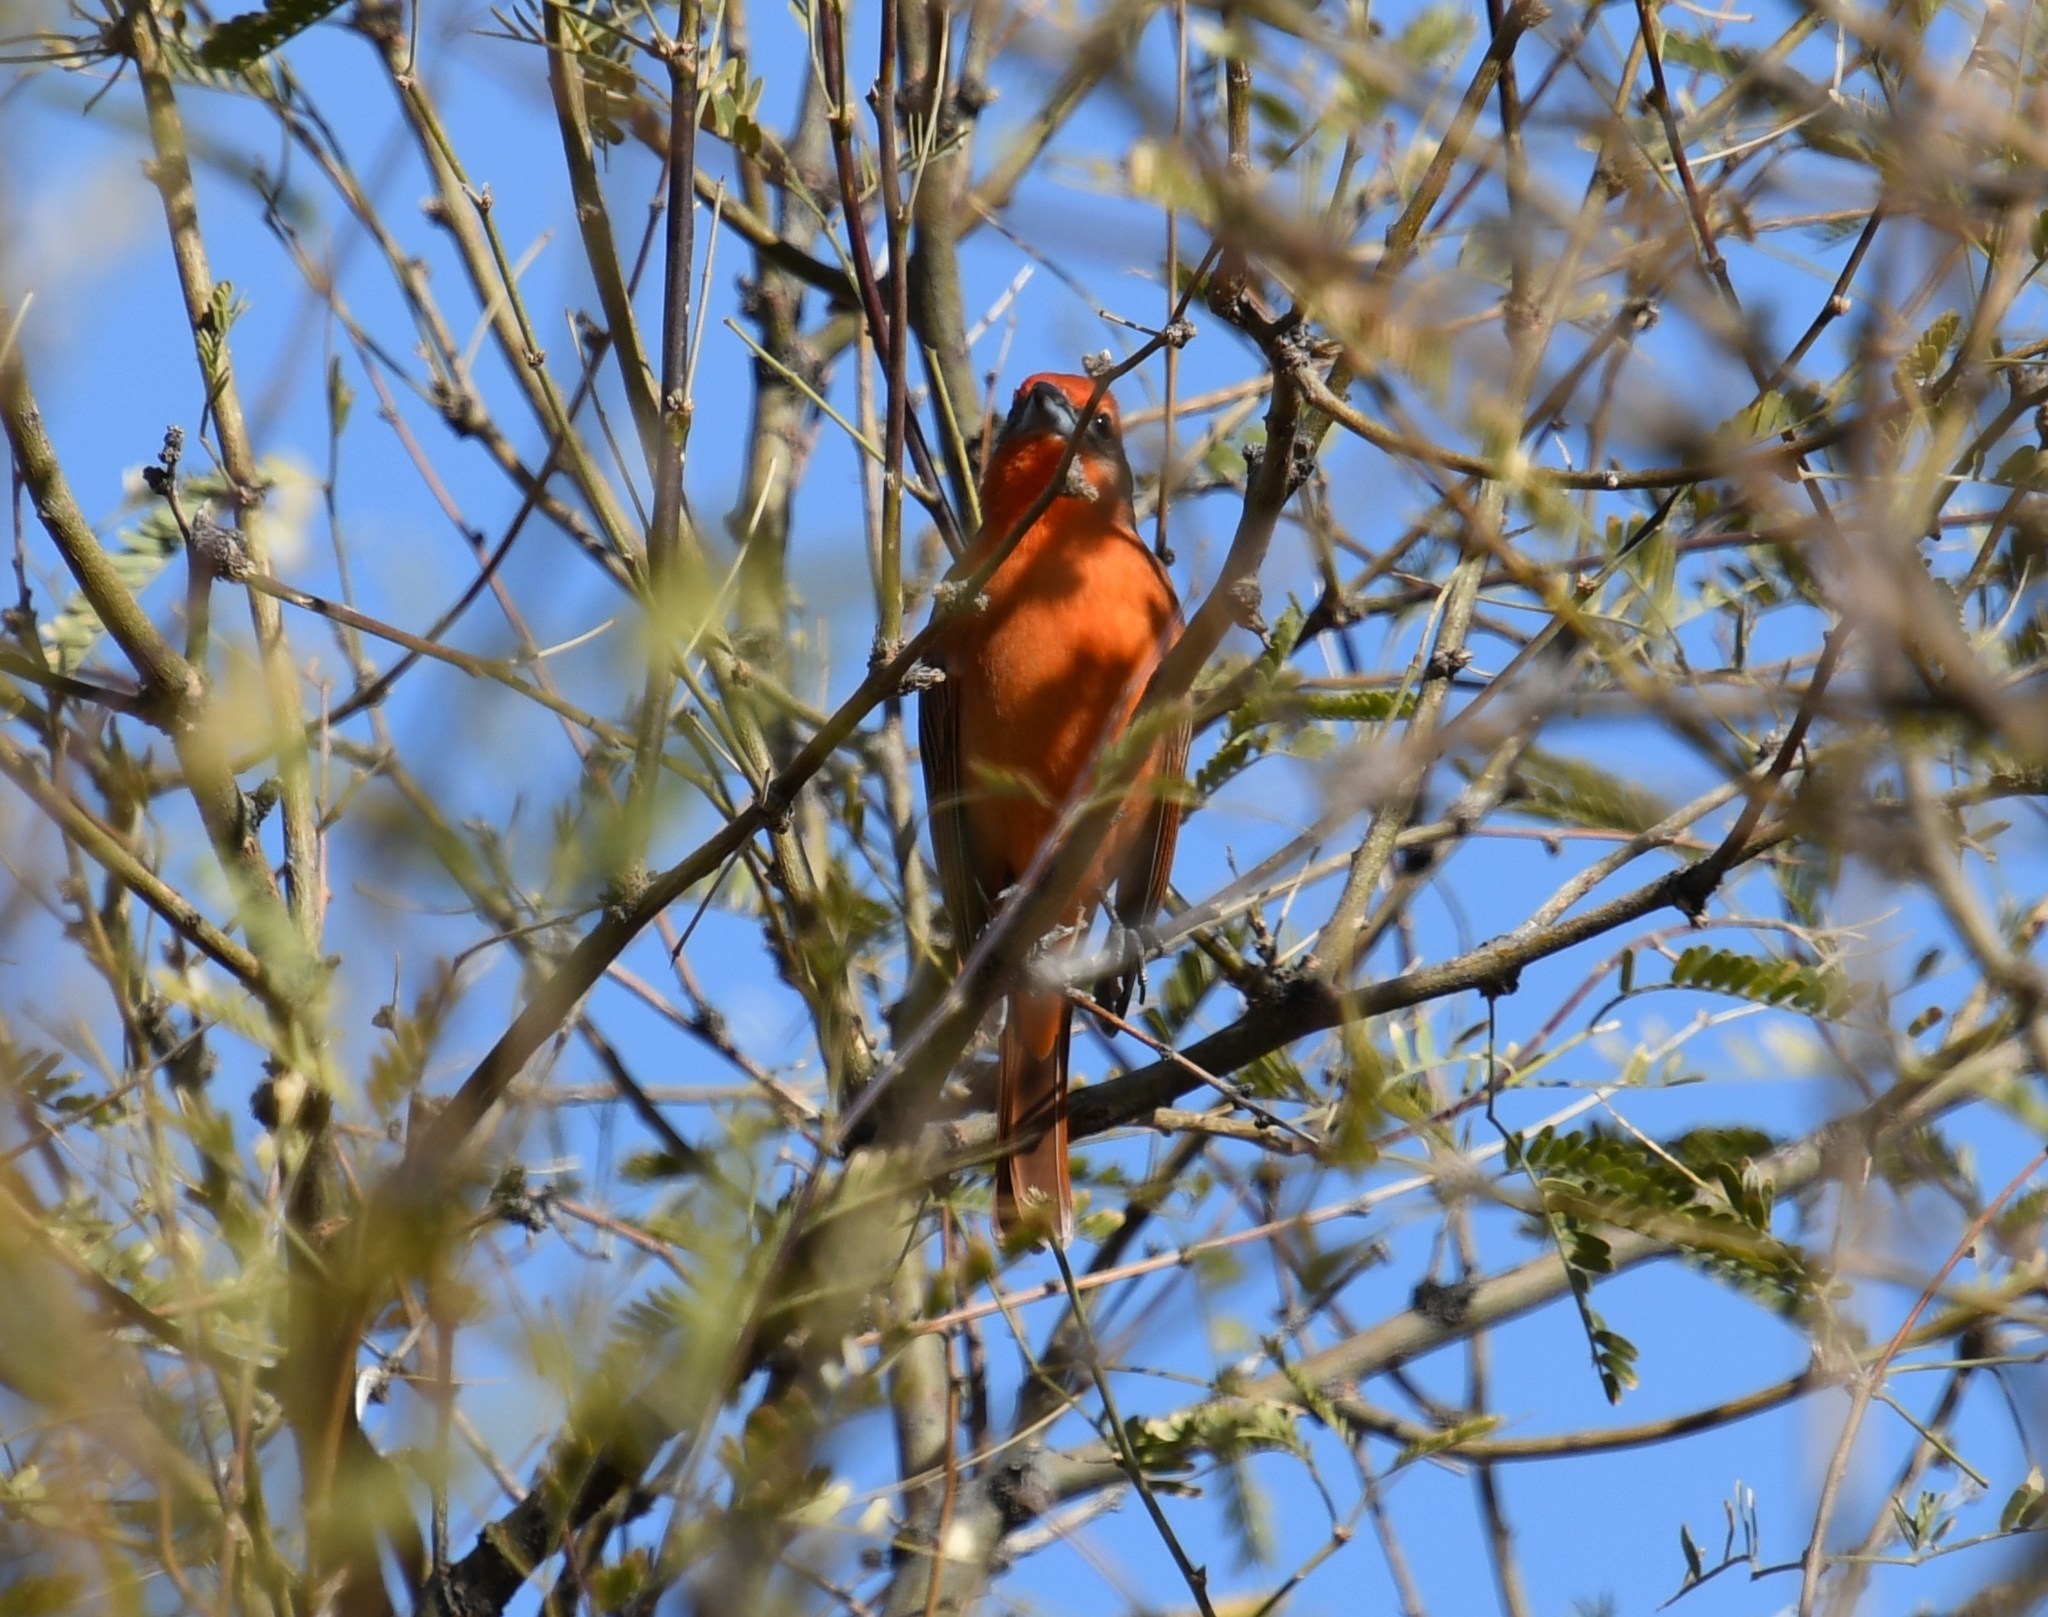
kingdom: Animalia
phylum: Chordata
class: Aves
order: Passeriformes
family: Cardinalidae
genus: Piranga
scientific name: Piranga flava
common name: Red tanager
